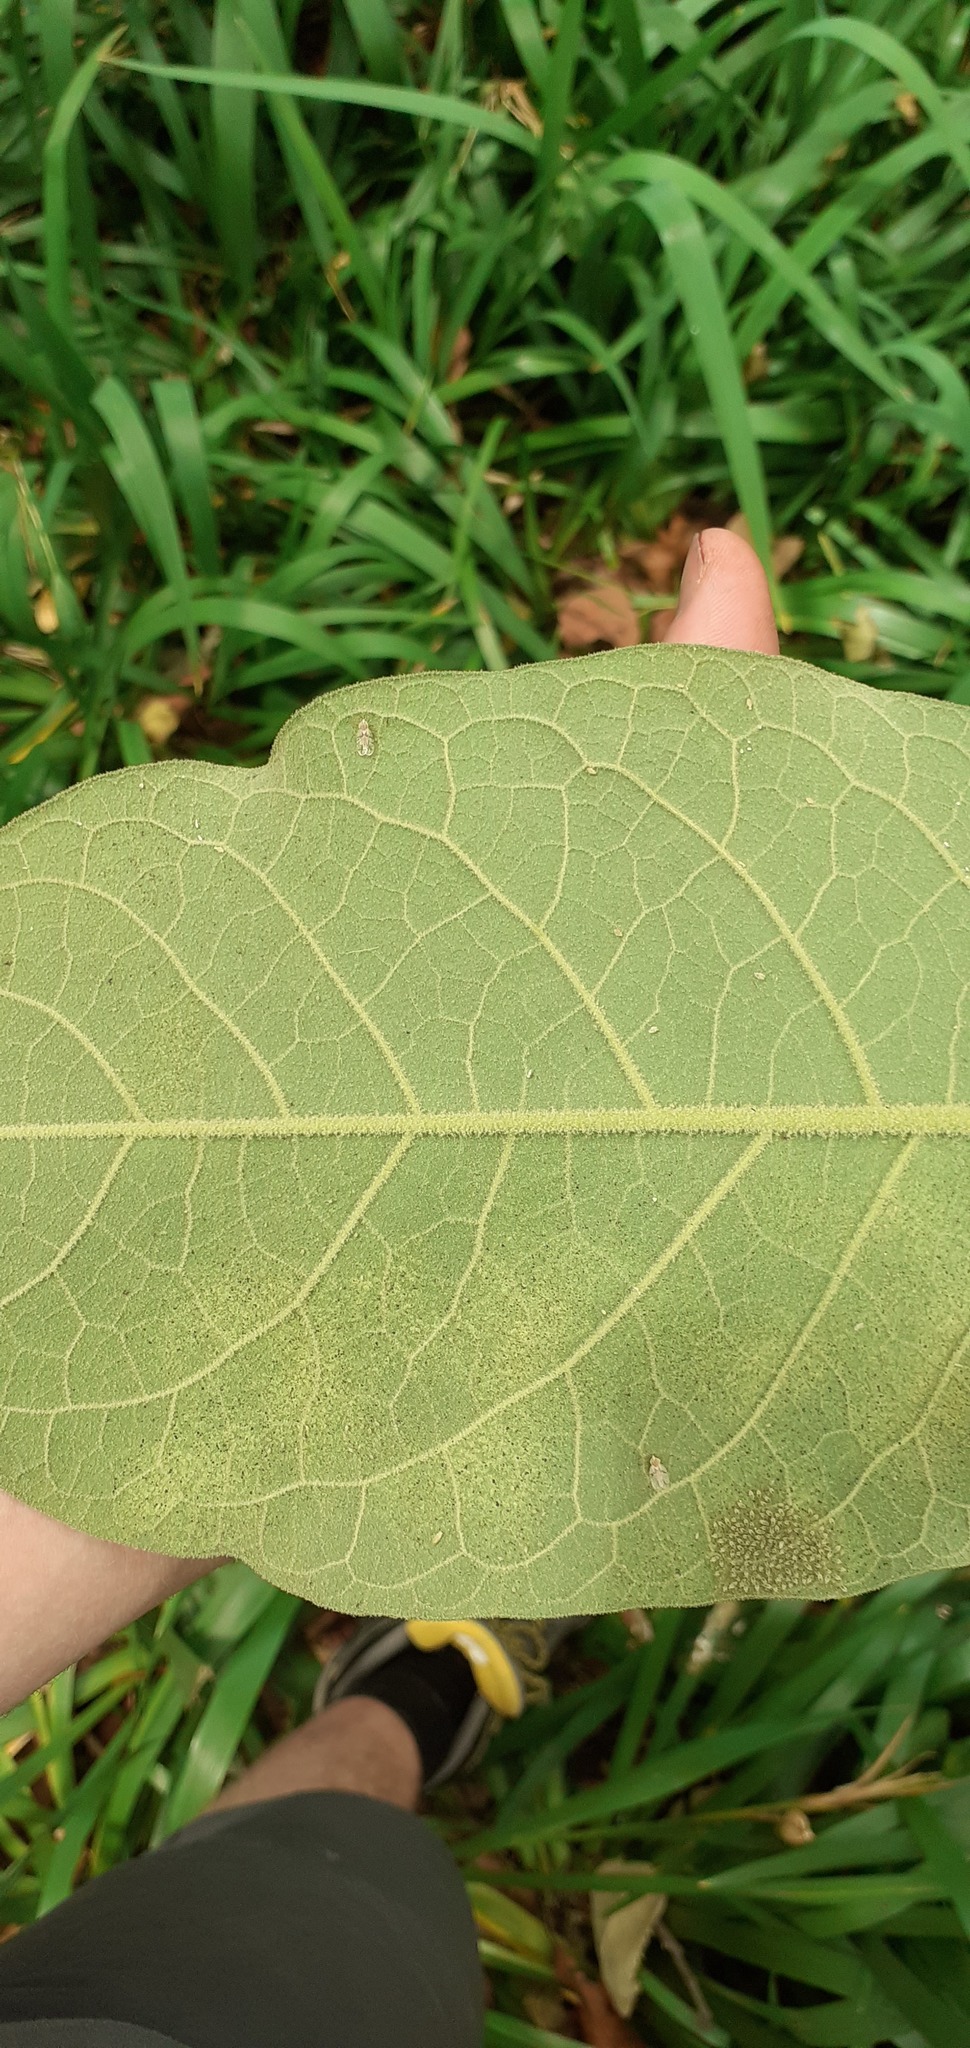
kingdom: Animalia
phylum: Arthropoda
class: Insecta
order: Hemiptera
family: Tingidae
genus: Gargaphia
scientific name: Gargaphia decoris
